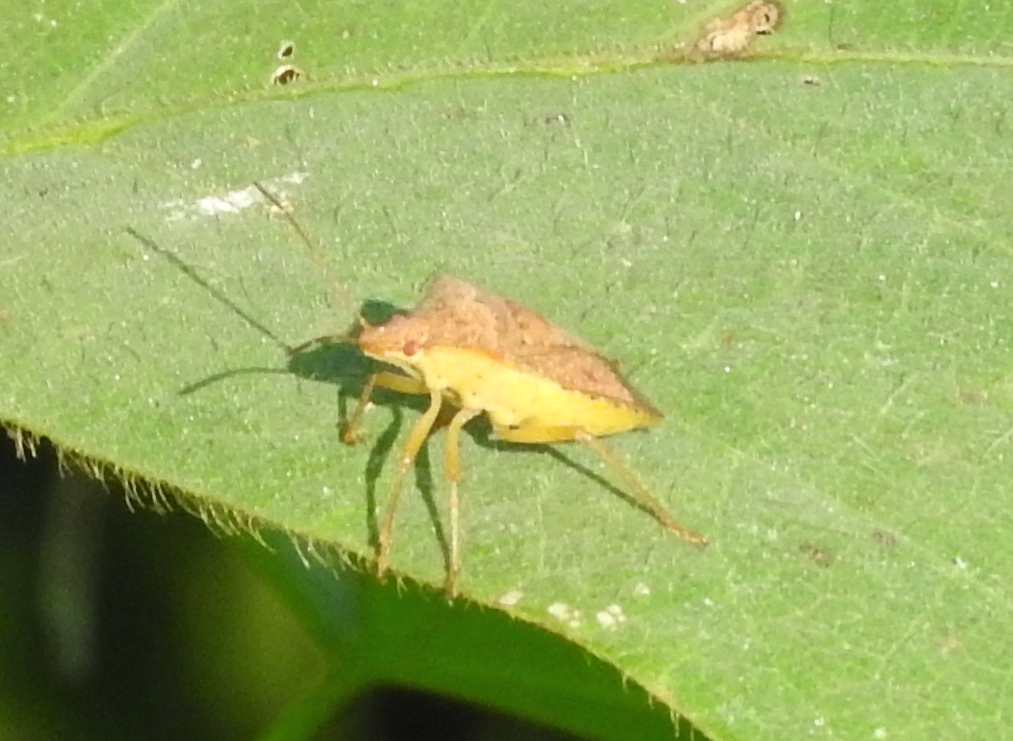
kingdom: Animalia
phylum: Arthropoda
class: Insecta
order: Hemiptera
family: Pentatomidae
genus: Euschistus
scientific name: Euschistus
